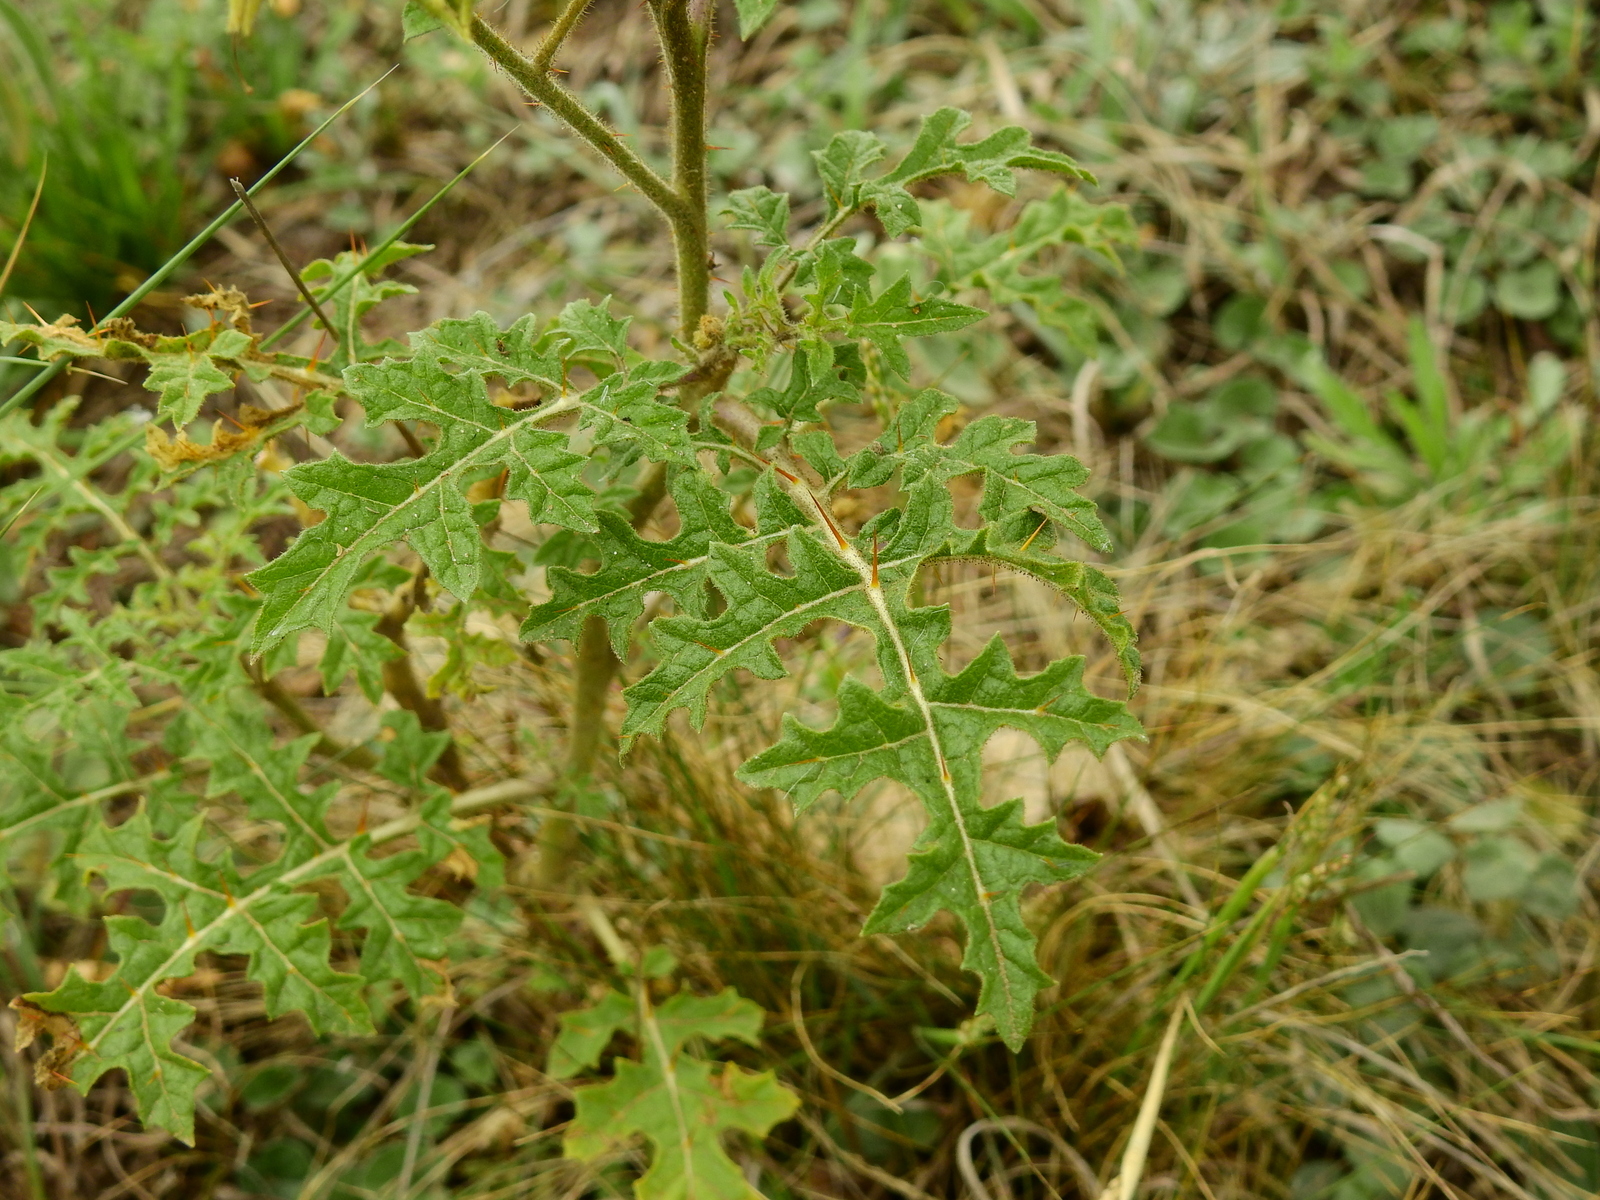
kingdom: Plantae
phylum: Tracheophyta
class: Magnoliopsida
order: Solanales
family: Solanaceae
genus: Solanum
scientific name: Solanum sisymbriifolium
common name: Red buffalo-bur
